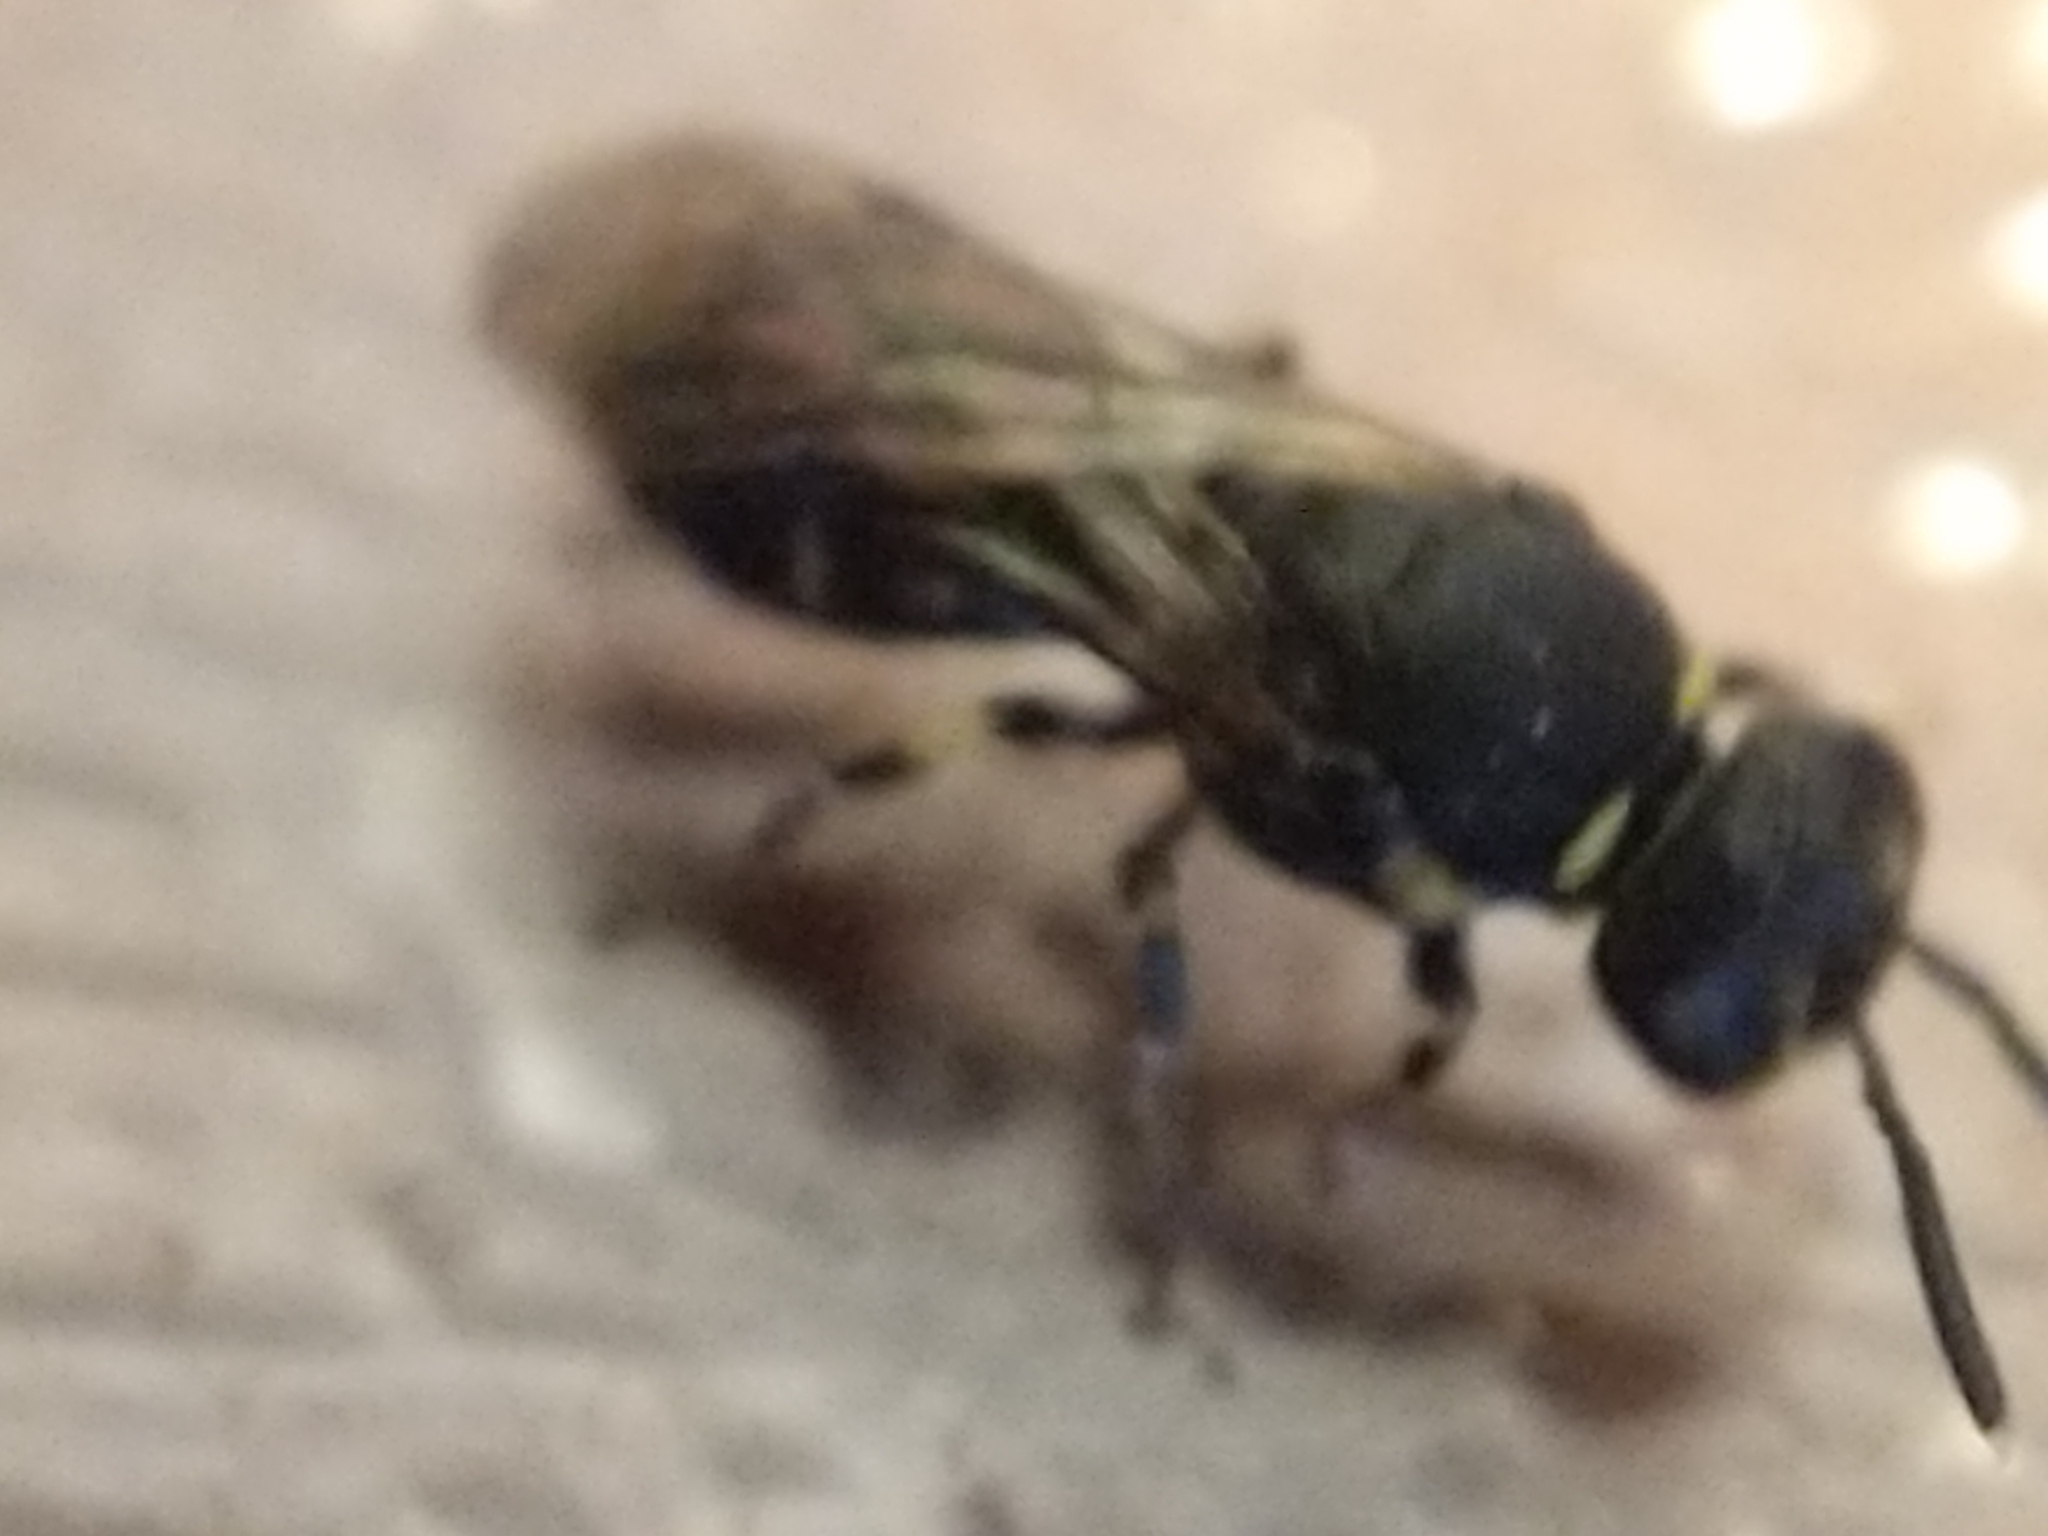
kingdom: Animalia
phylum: Arthropoda
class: Insecta
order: Hymenoptera
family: Colletidae
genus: Hylaeus
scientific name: Hylaeus modestus
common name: Yellow-faced bee
